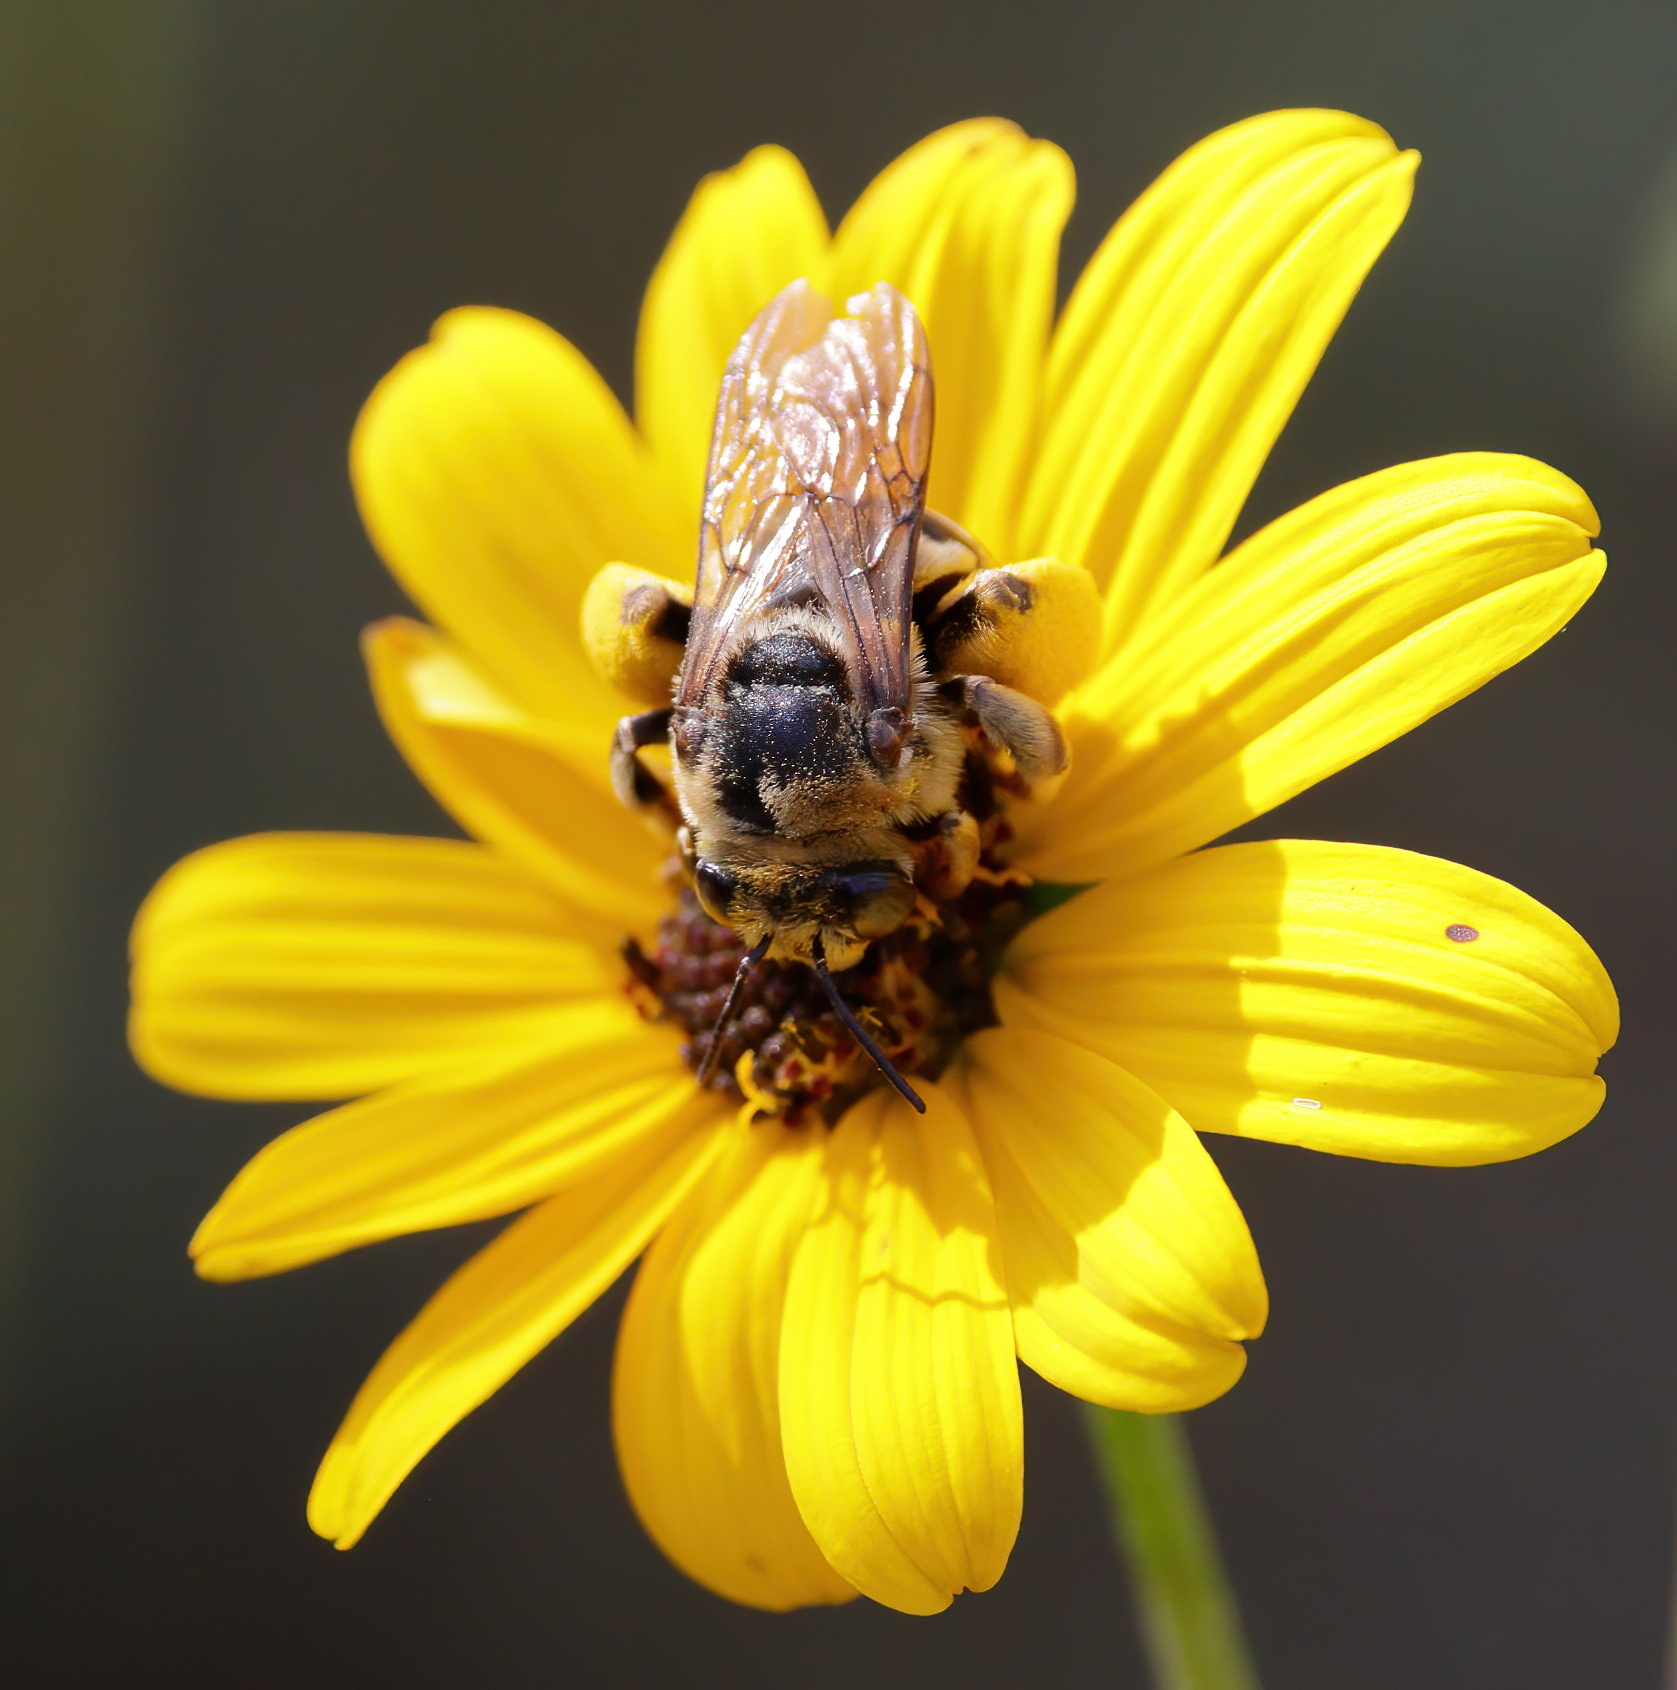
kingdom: Animalia
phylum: Arthropoda
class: Insecta
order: Hymenoptera
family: Apidae
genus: Svastra
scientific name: Svastra aegis
